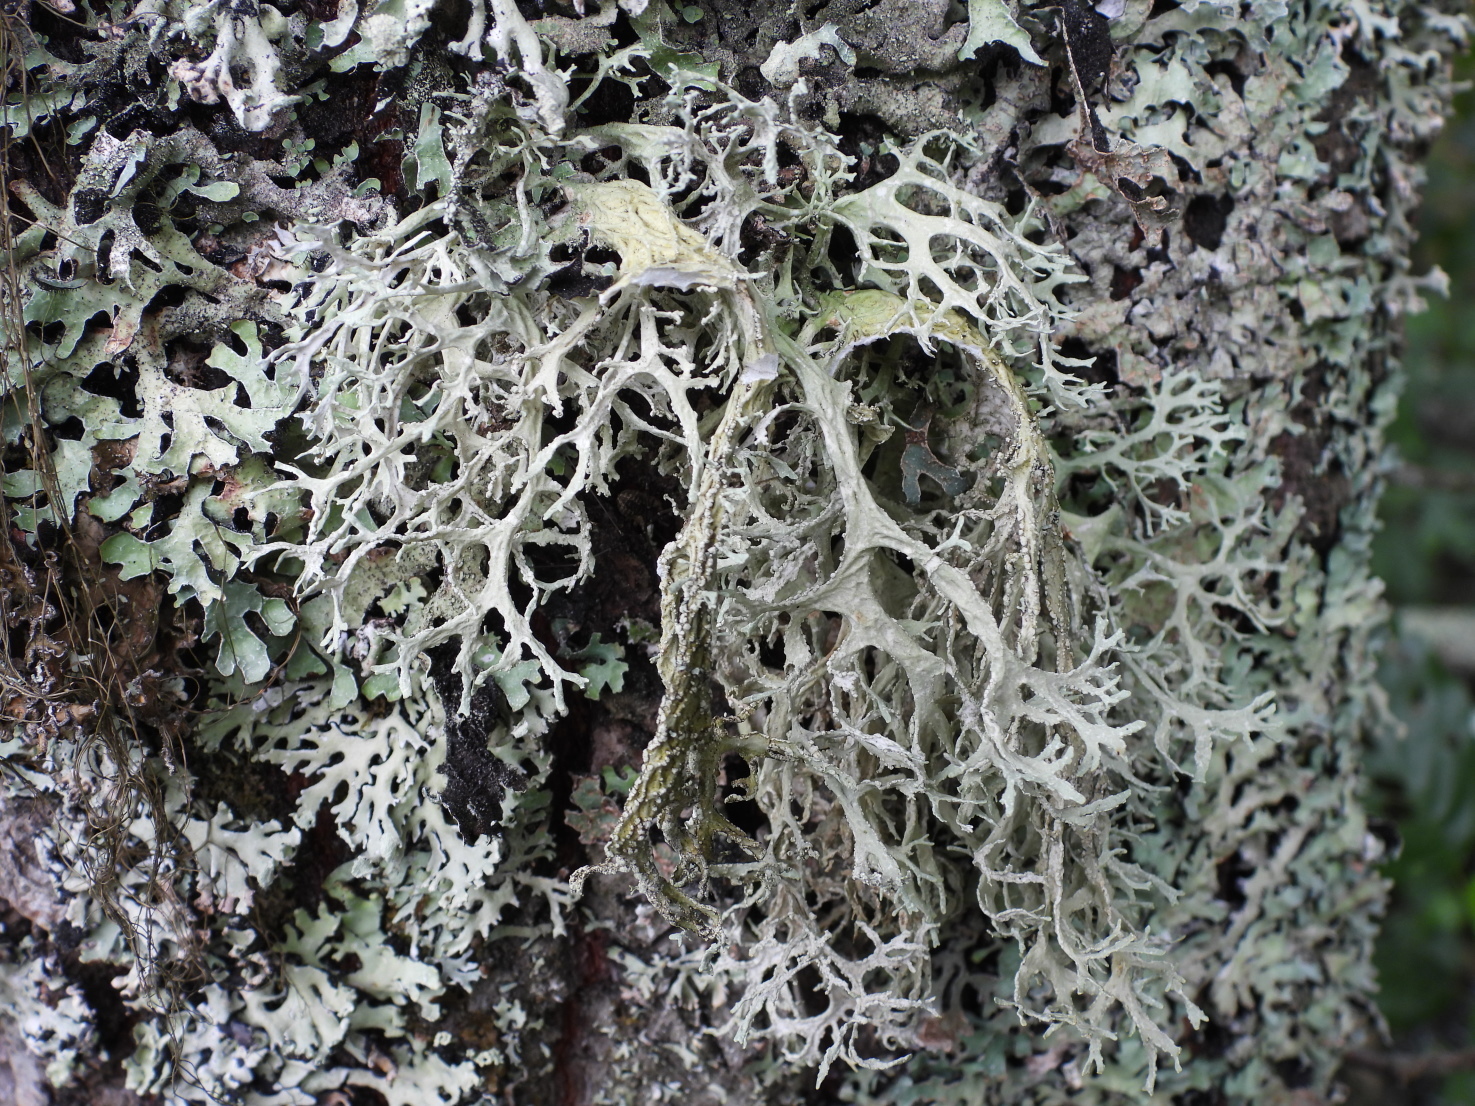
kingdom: Fungi
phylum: Ascomycota
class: Lecanoromycetes
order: Lecanorales
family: Parmeliaceae
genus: Evernia
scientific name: Evernia prunastri
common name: Oak moss
